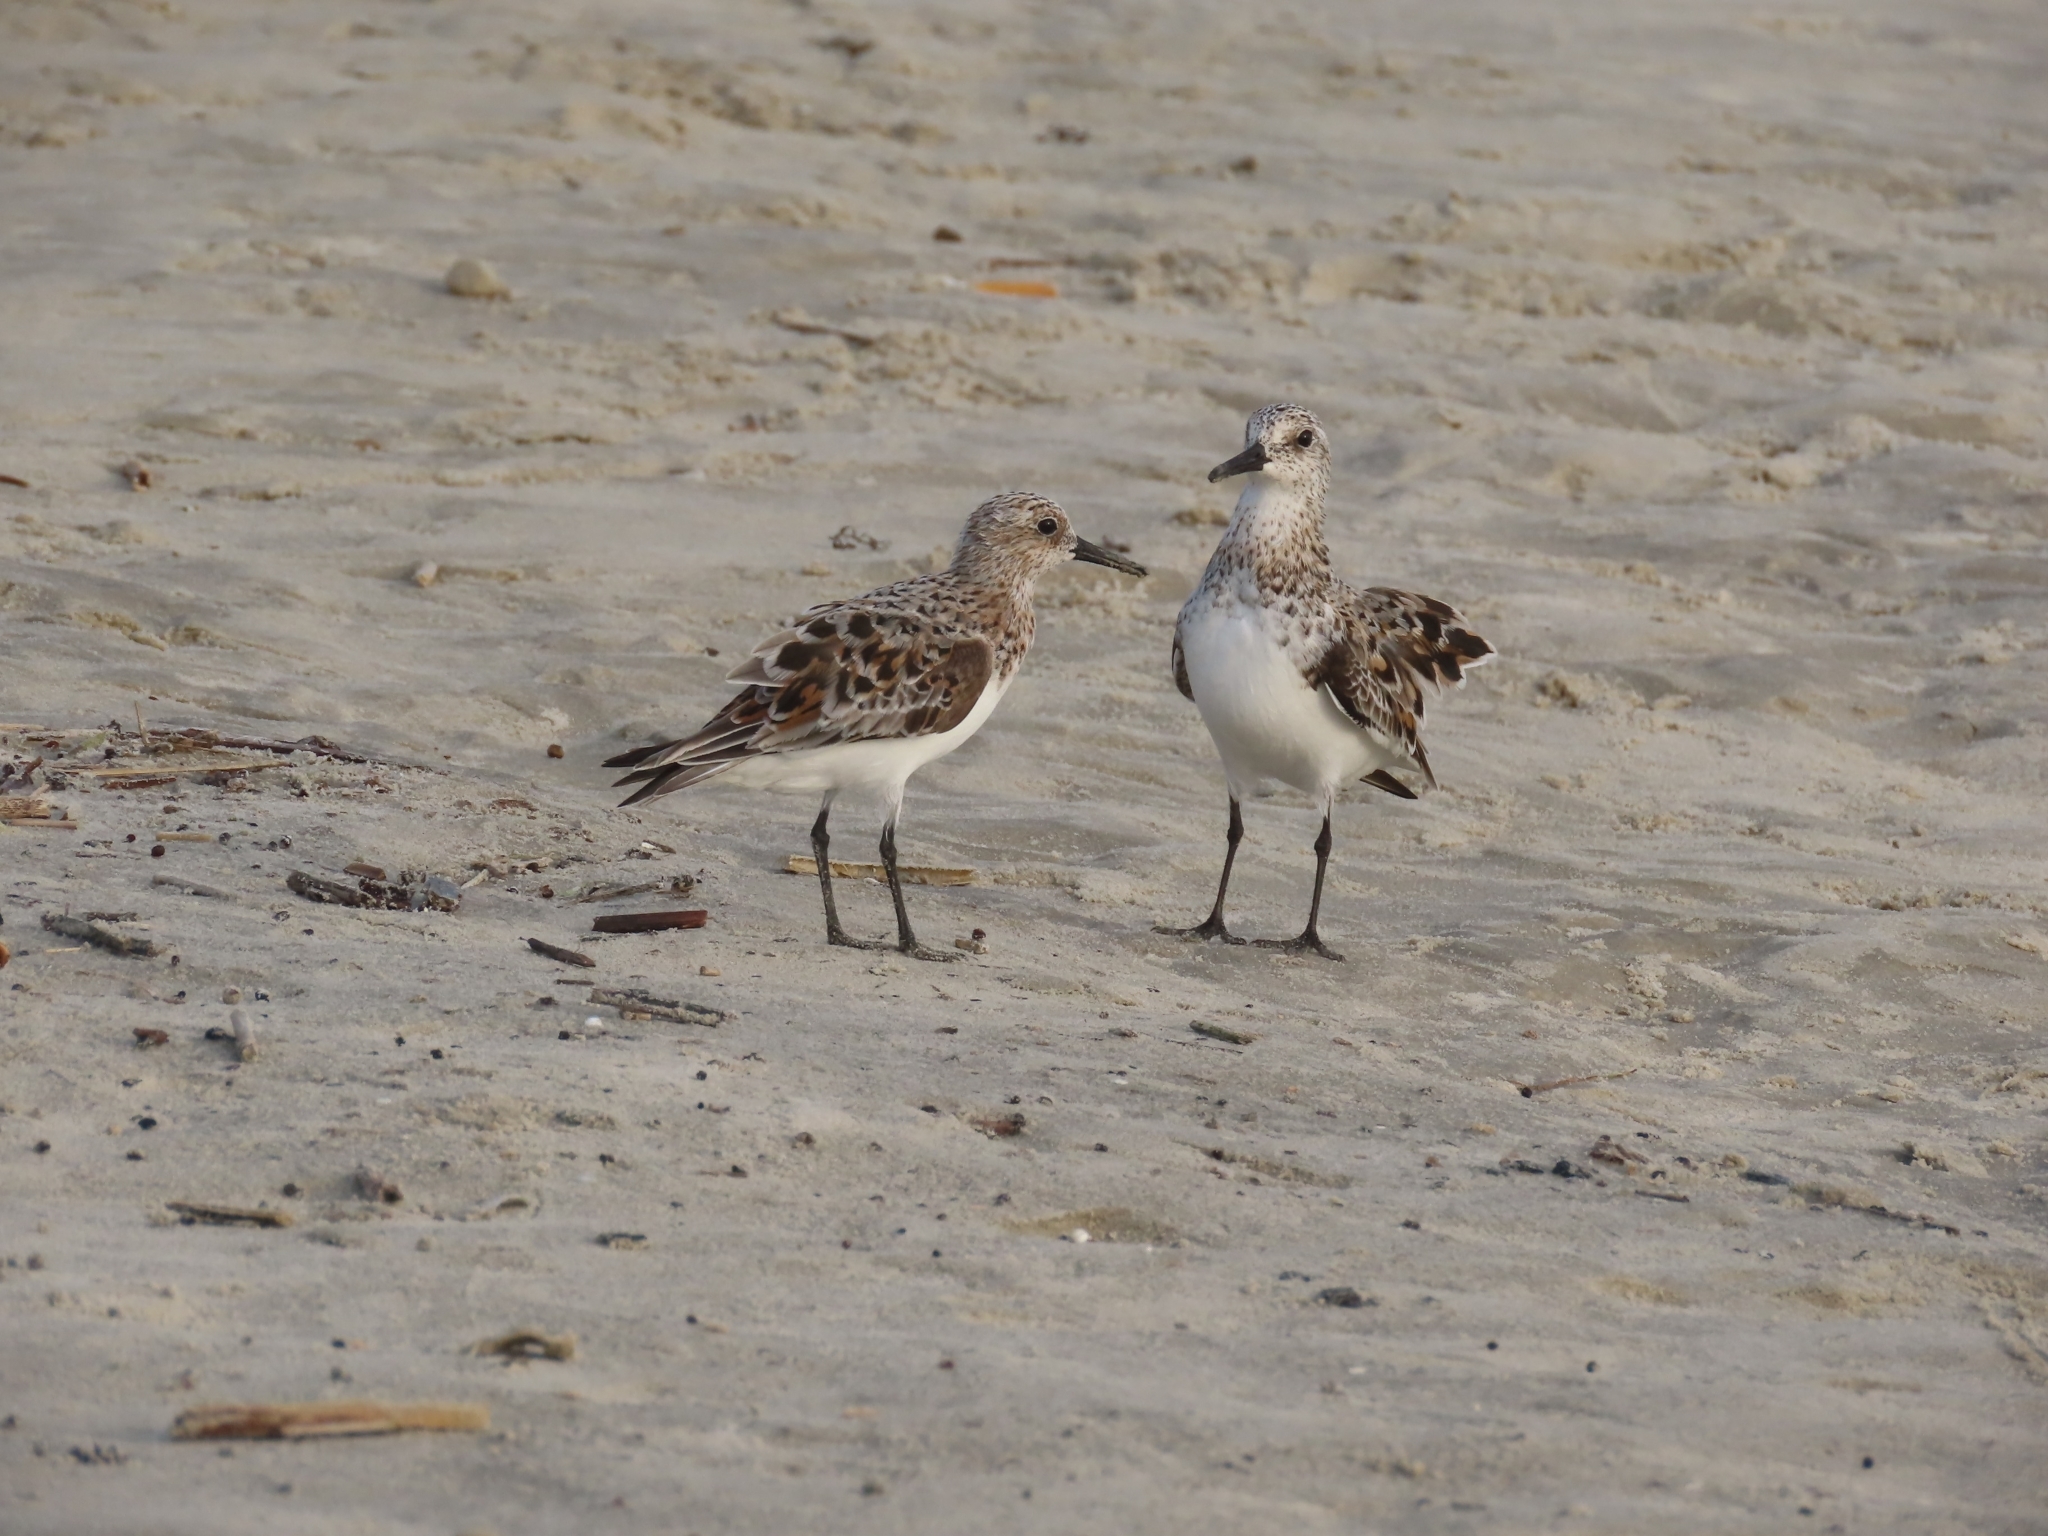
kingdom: Animalia
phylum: Chordata
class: Aves
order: Charadriiformes
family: Scolopacidae
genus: Calidris
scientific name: Calidris alba
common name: Sanderling
